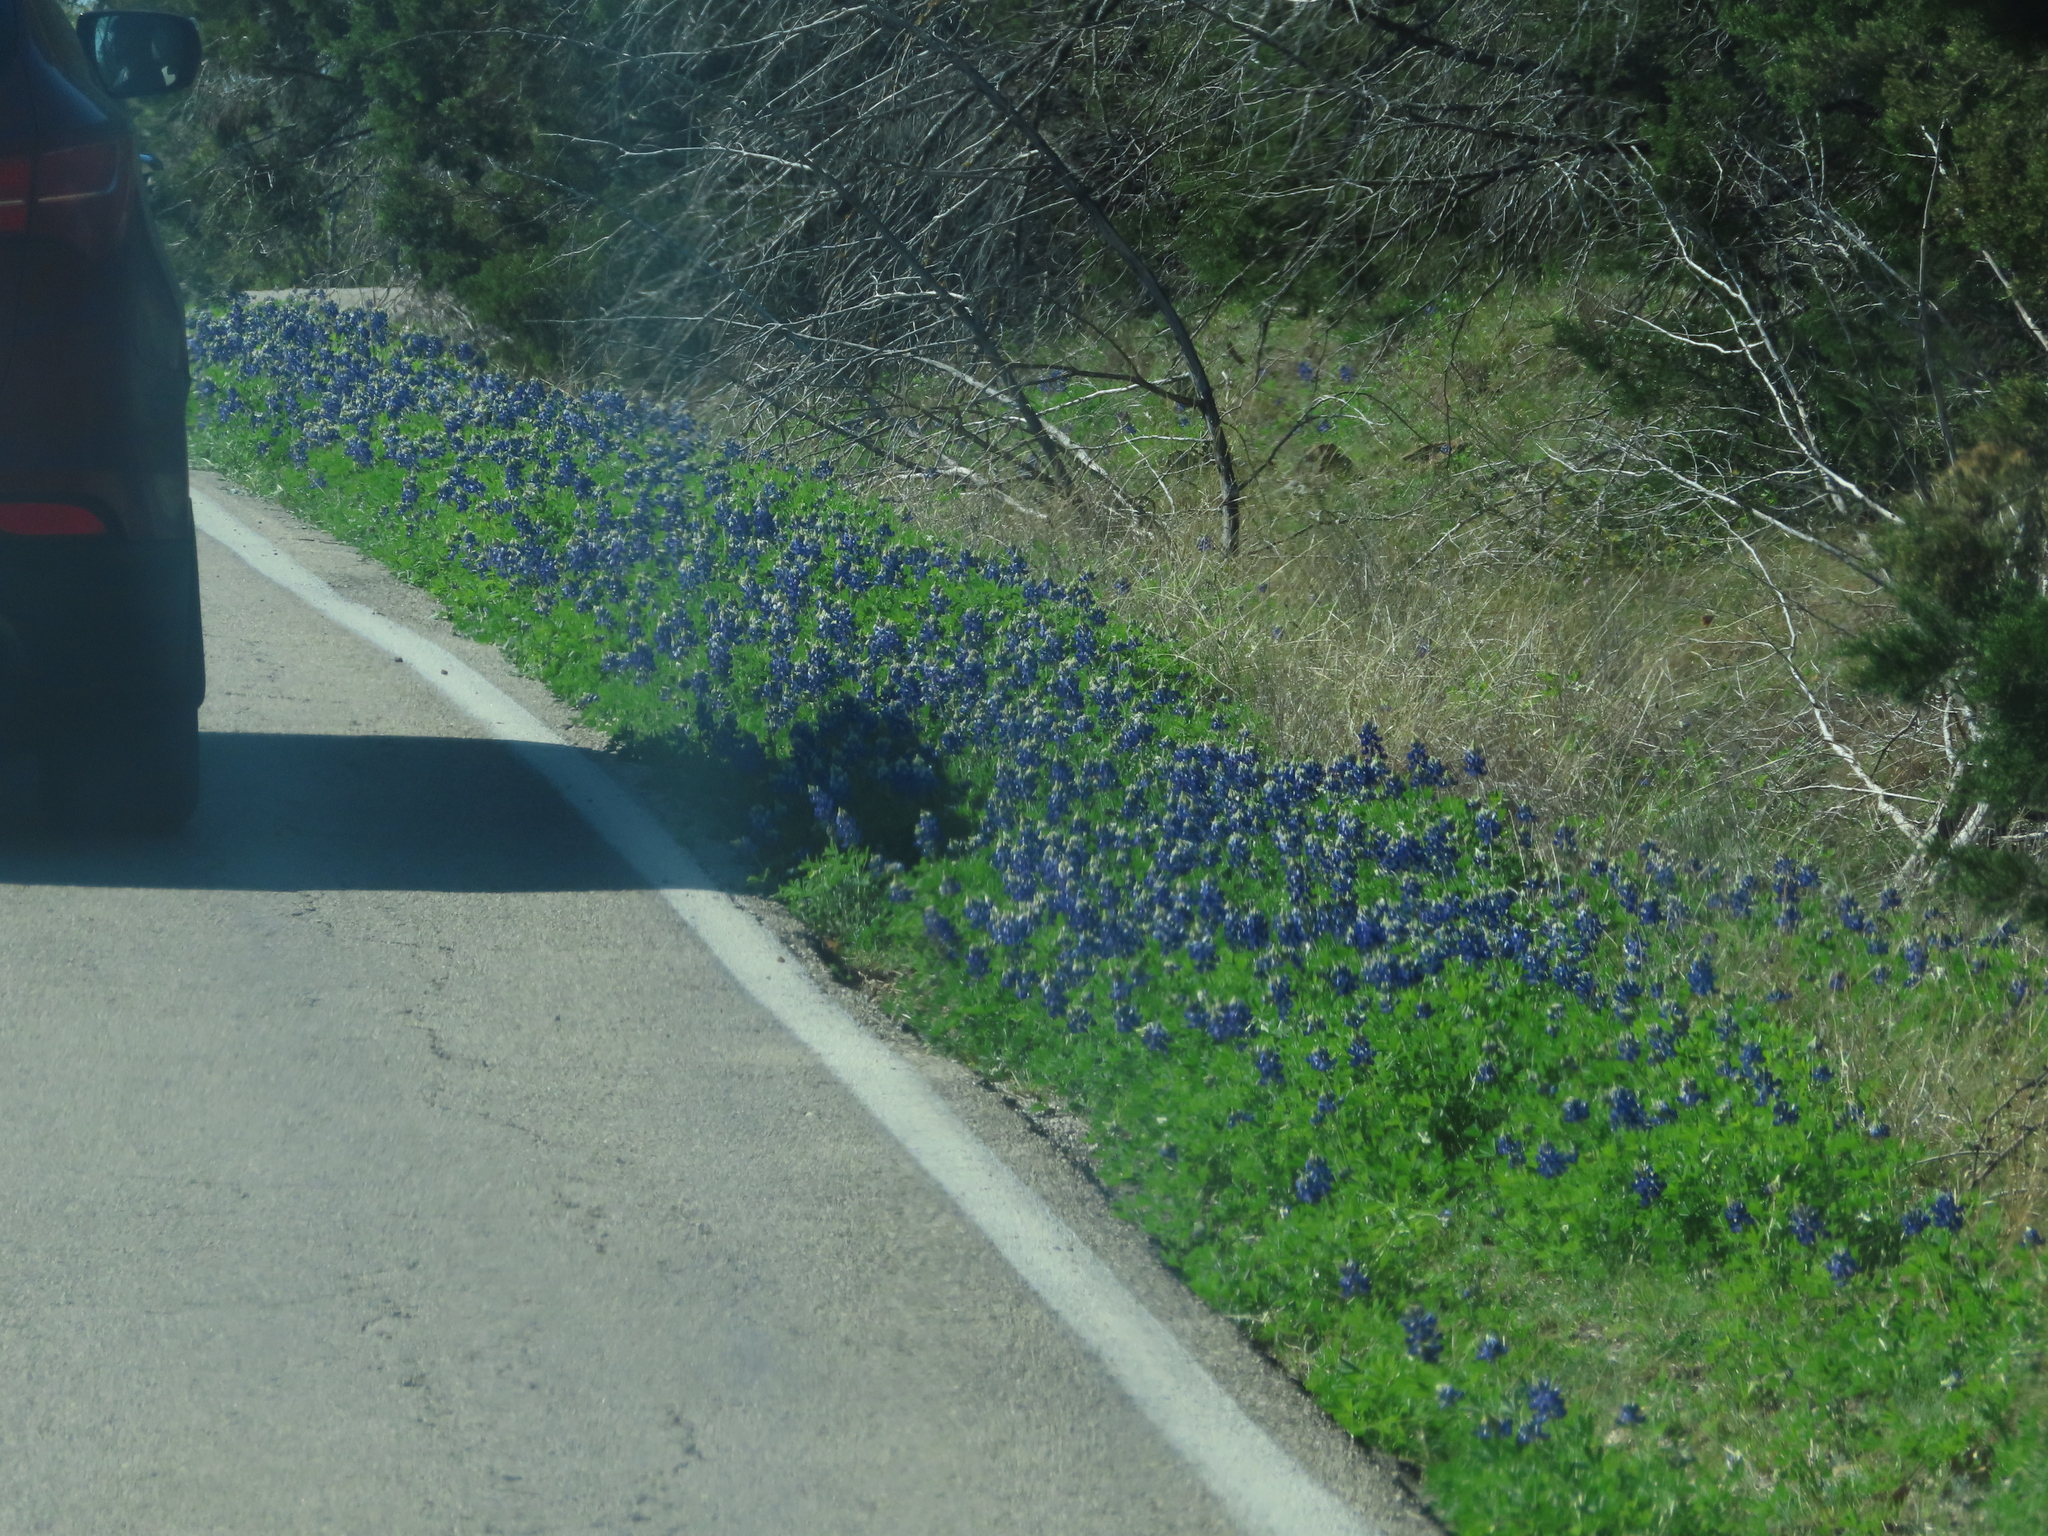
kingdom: Plantae
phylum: Tracheophyta
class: Magnoliopsida
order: Fabales
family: Fabaceae
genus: Lupinus
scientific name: Lupinus texensis
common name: Texas bluebonnet
